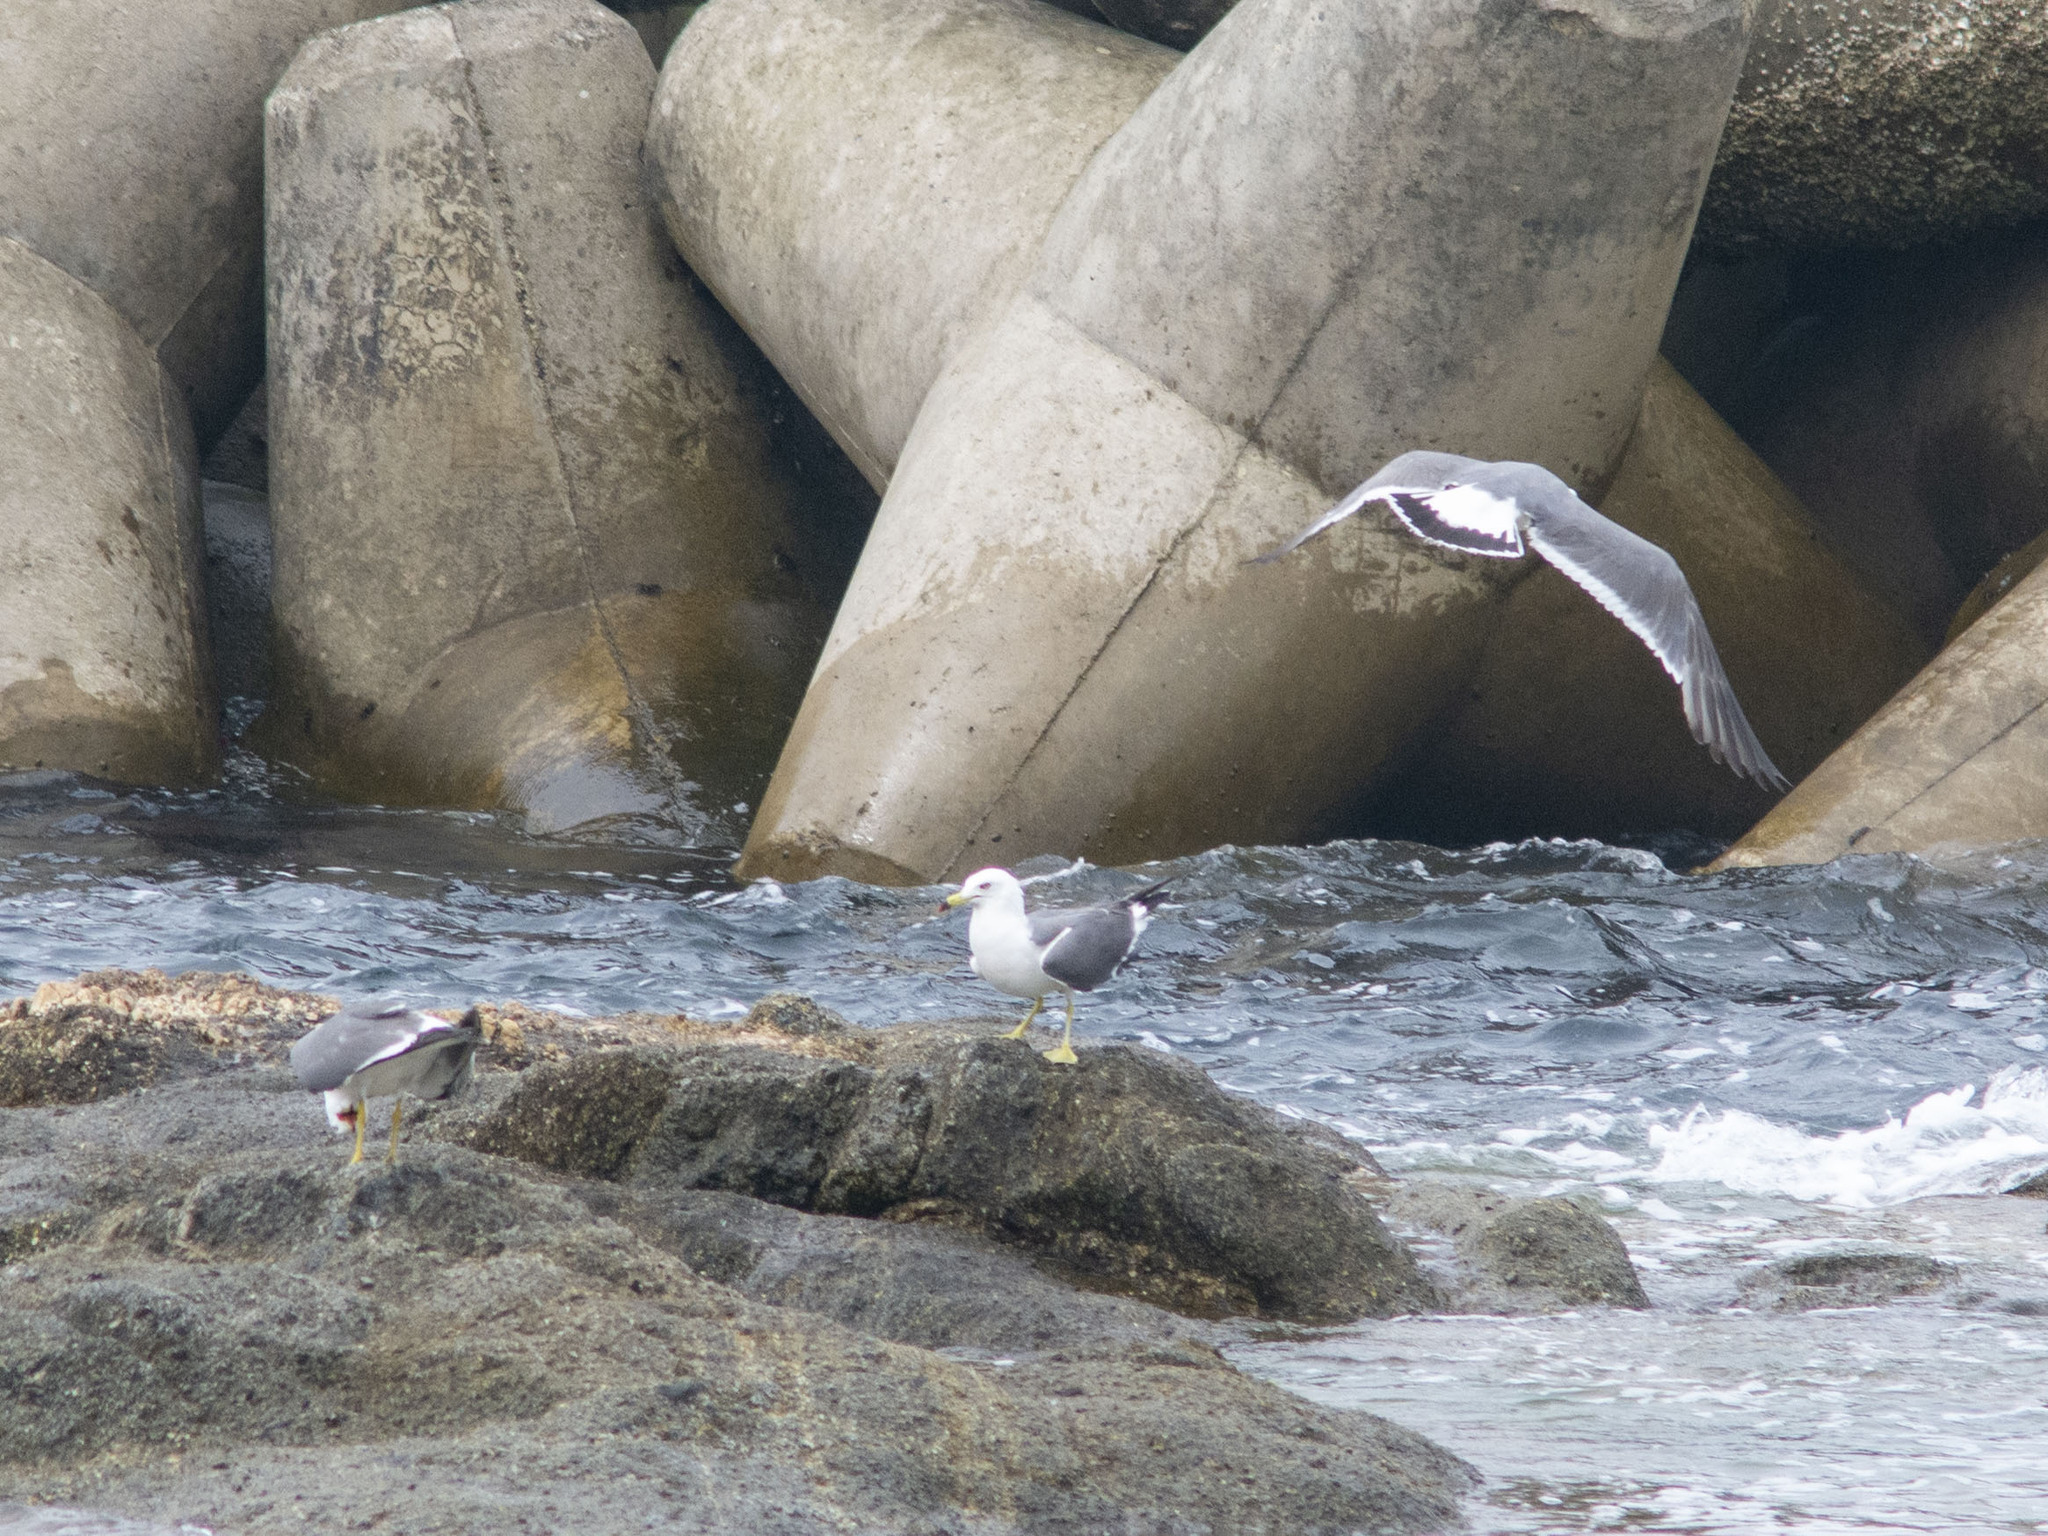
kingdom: Animalia
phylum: Chordata
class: Aves
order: Charadriiformes
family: Laridae
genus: Larus
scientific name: Larus crassirostris
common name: Black-tailed gull
